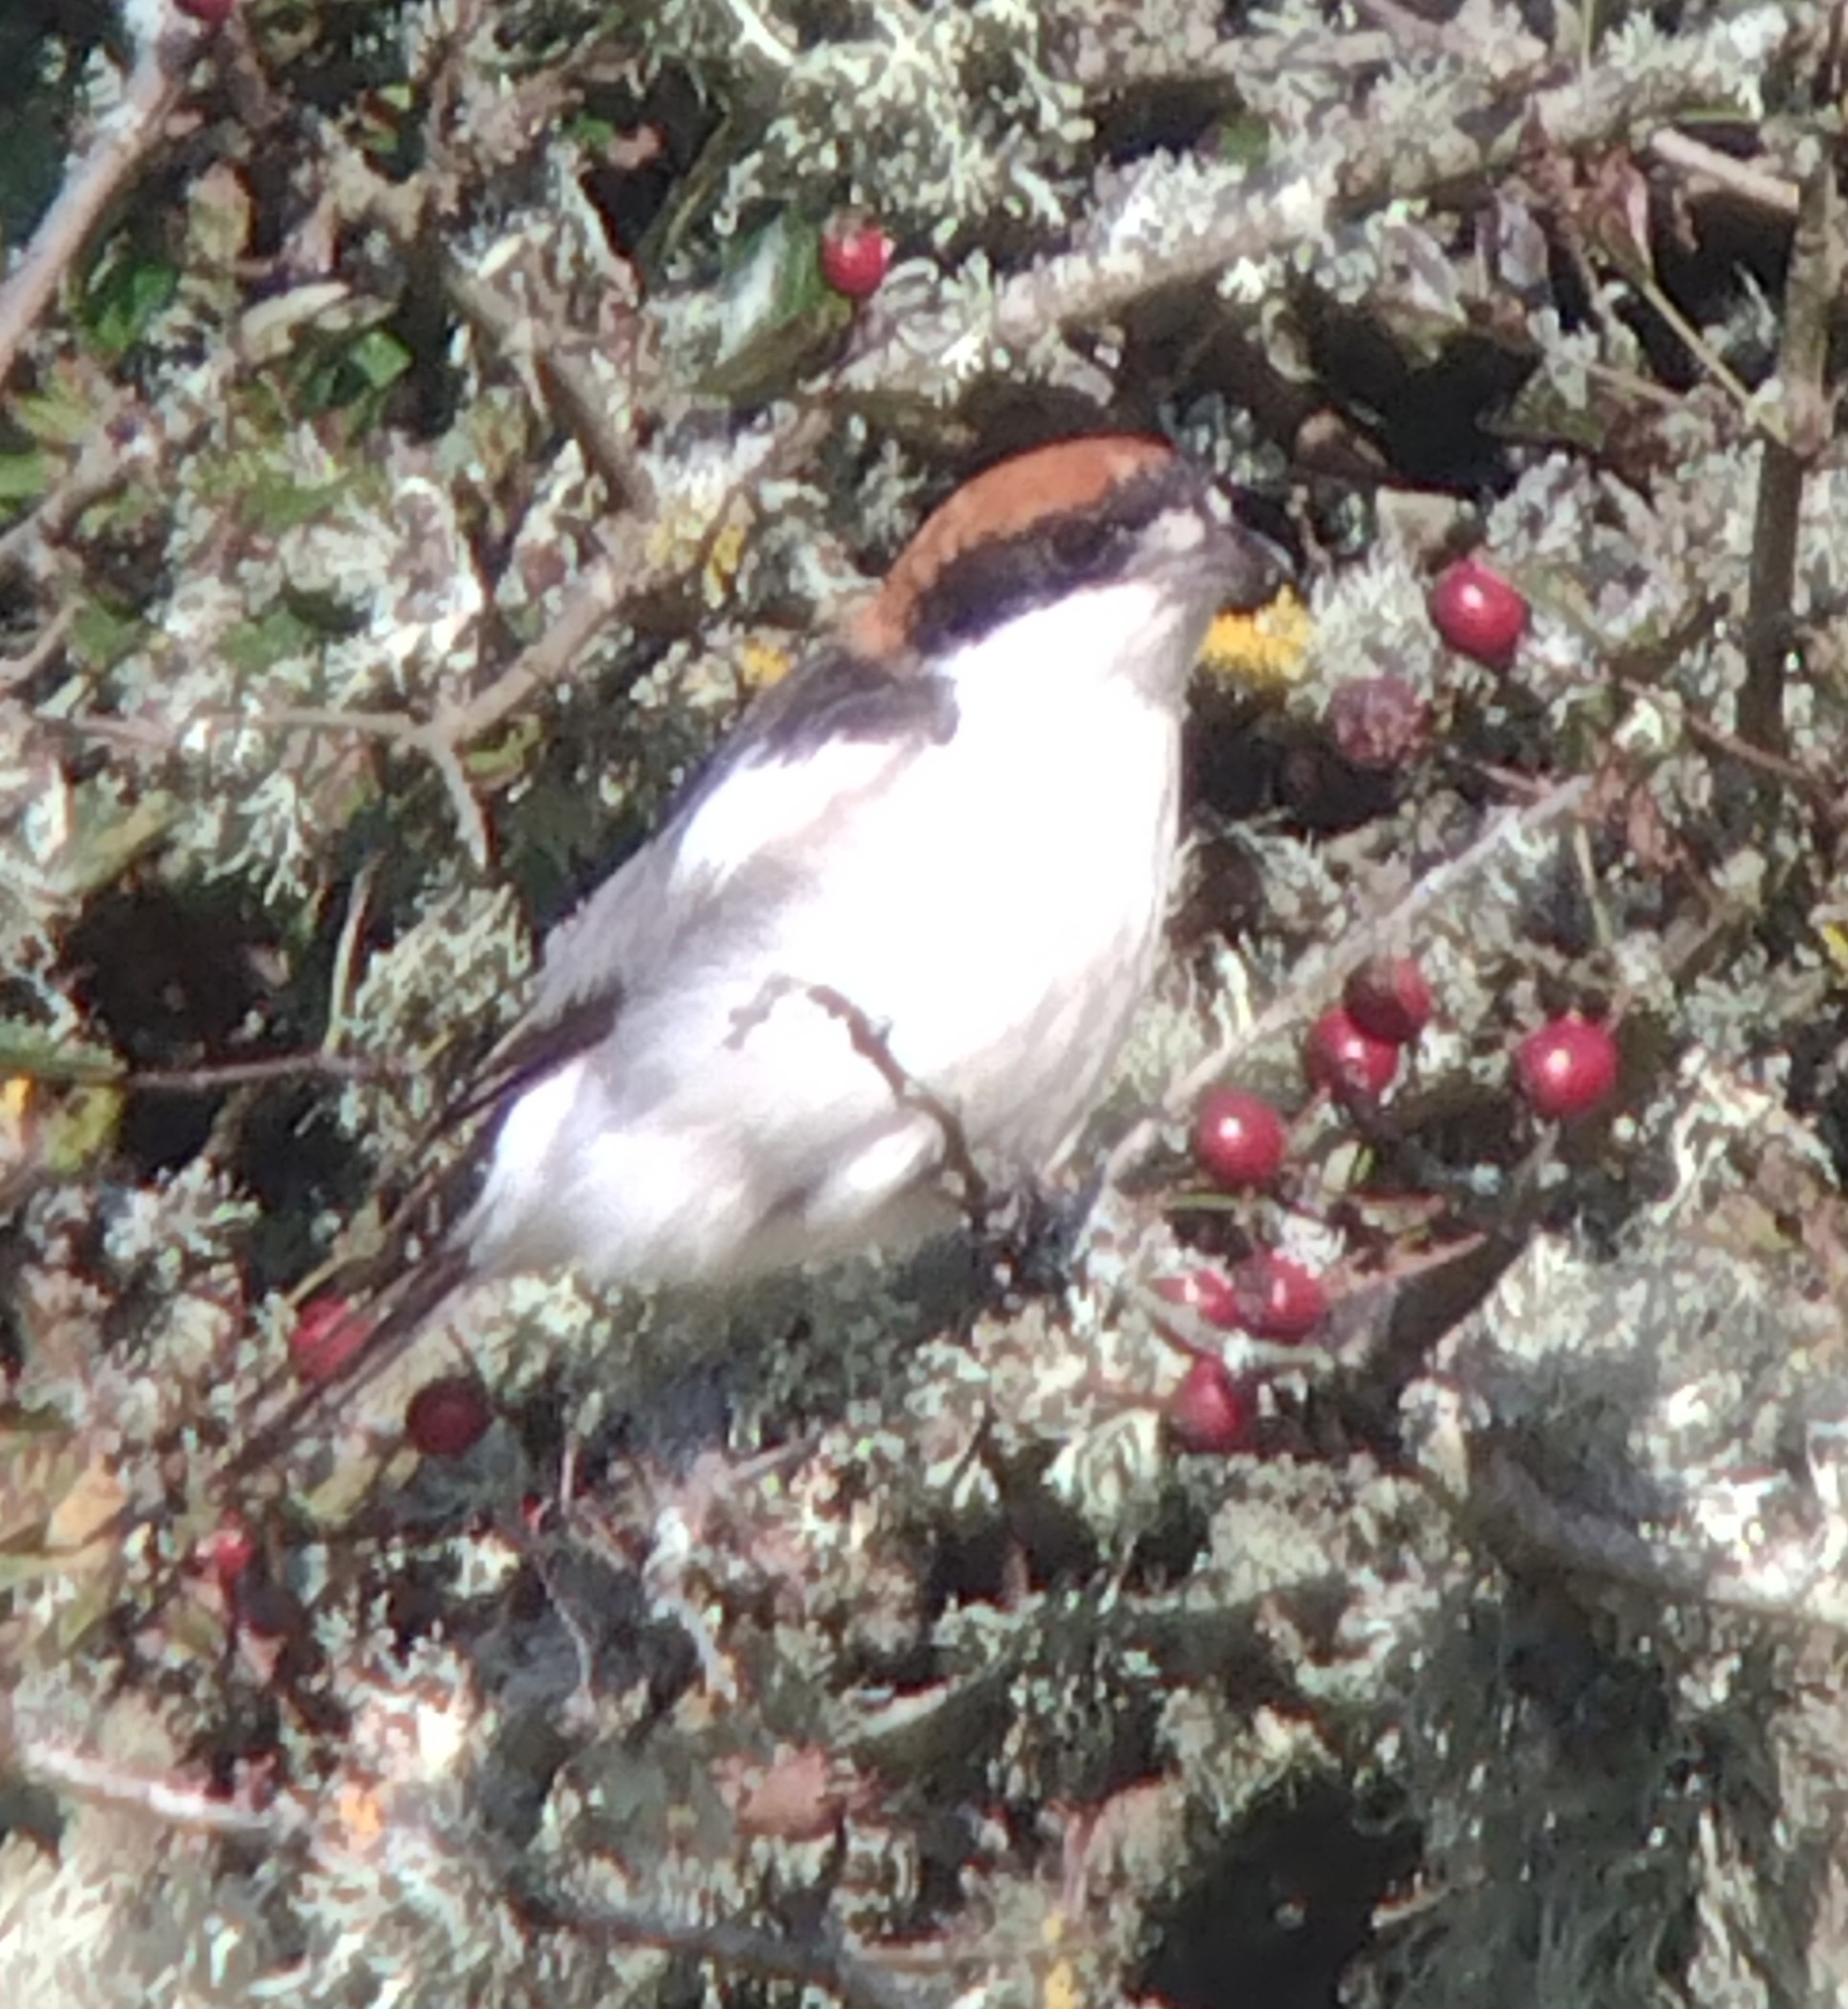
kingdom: Animalia
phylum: Chordata
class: Aves
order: Passeriformes
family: Laniidae
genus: Lanius
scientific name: Lanius senator
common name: Woodchat shrike
